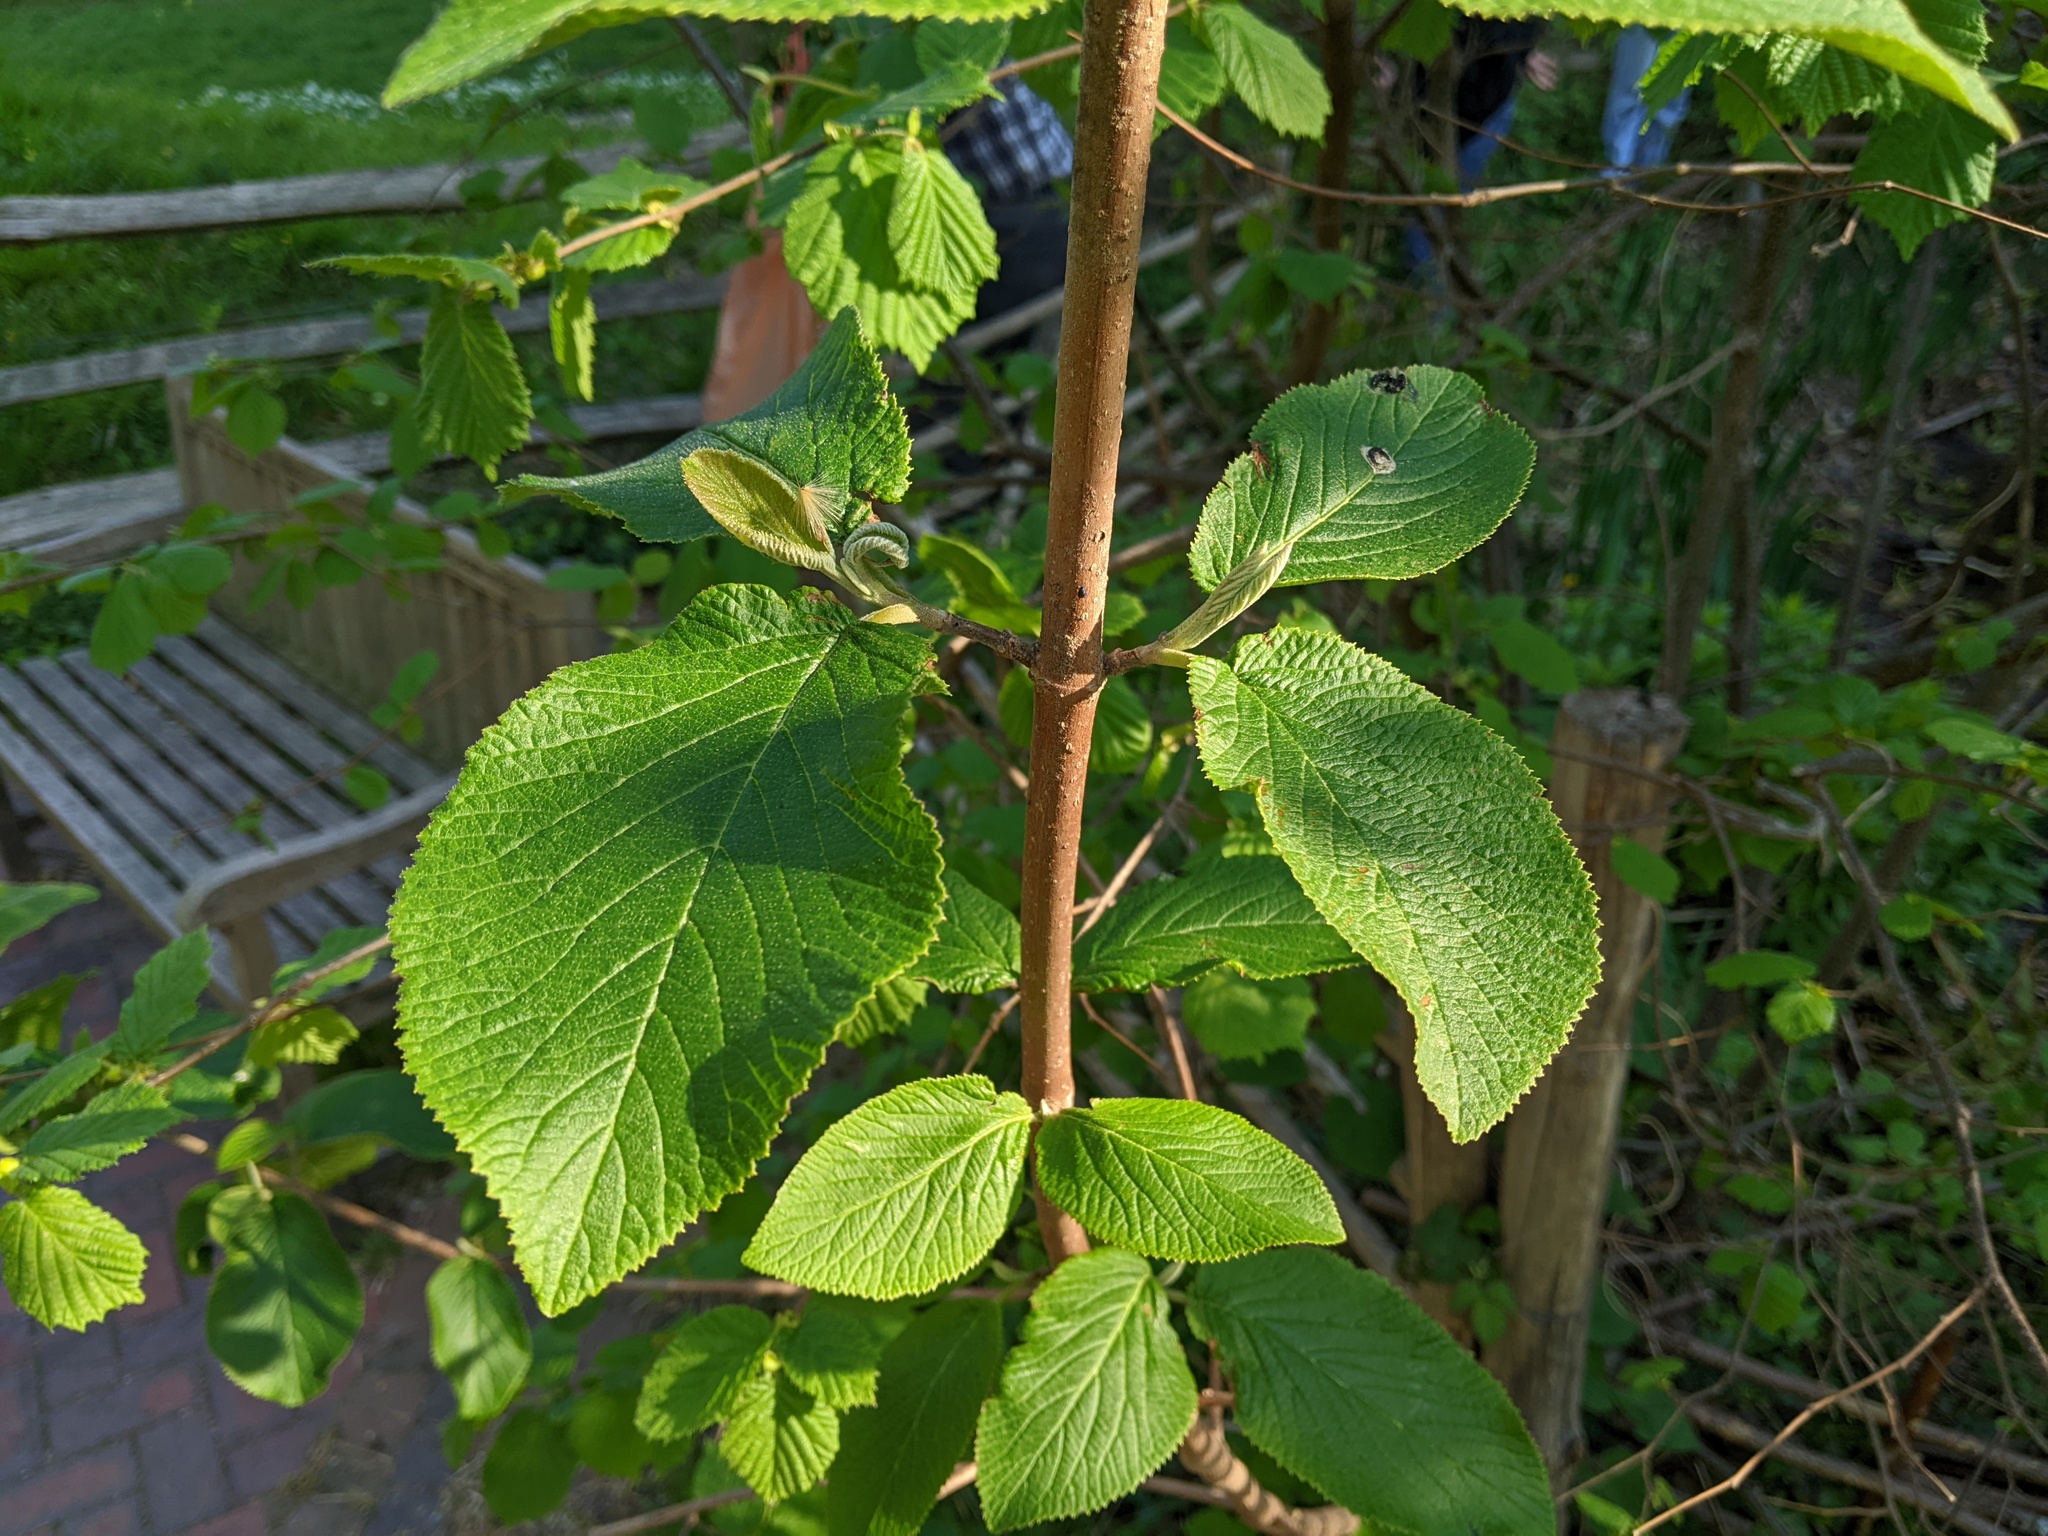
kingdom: Plantae
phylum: Tracheophyta
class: Magnoliopsida
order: Dipsacales
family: Viburnaceae
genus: Viburnum
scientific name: Viburnum lantana
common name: Wayfaring tree
